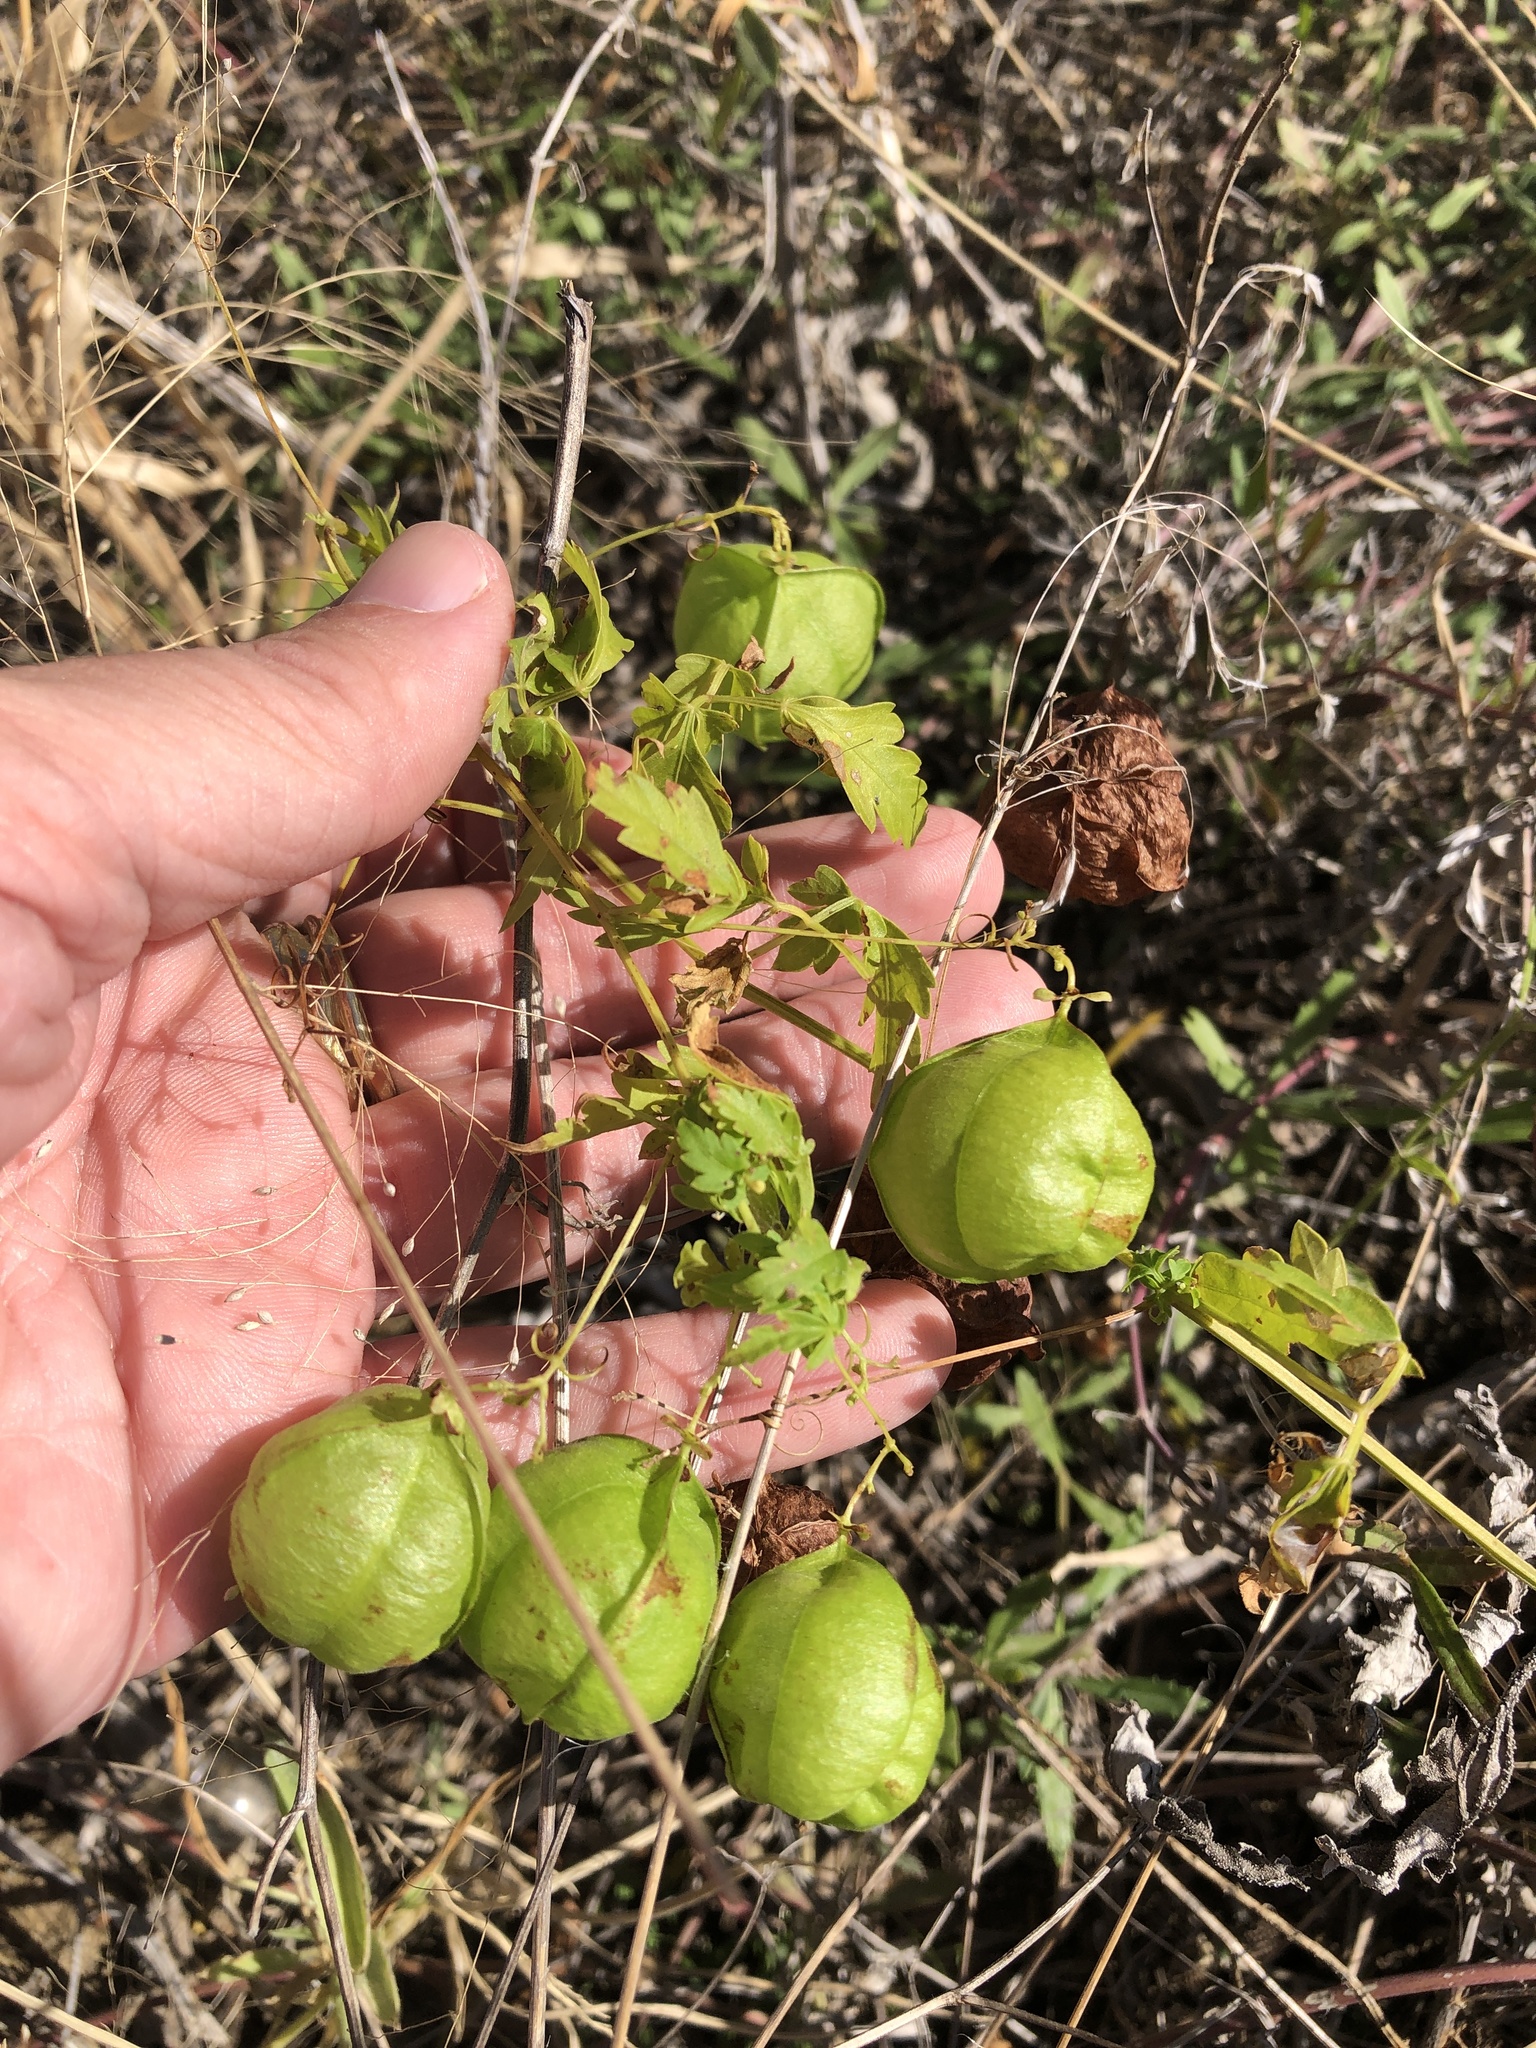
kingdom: Plantae
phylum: Tracheophyta
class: Magnoliopsida
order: Sapindales
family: Sapindaceae
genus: Cardiospermum
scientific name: Cardiospermum halicacabum
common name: Balloon vine
